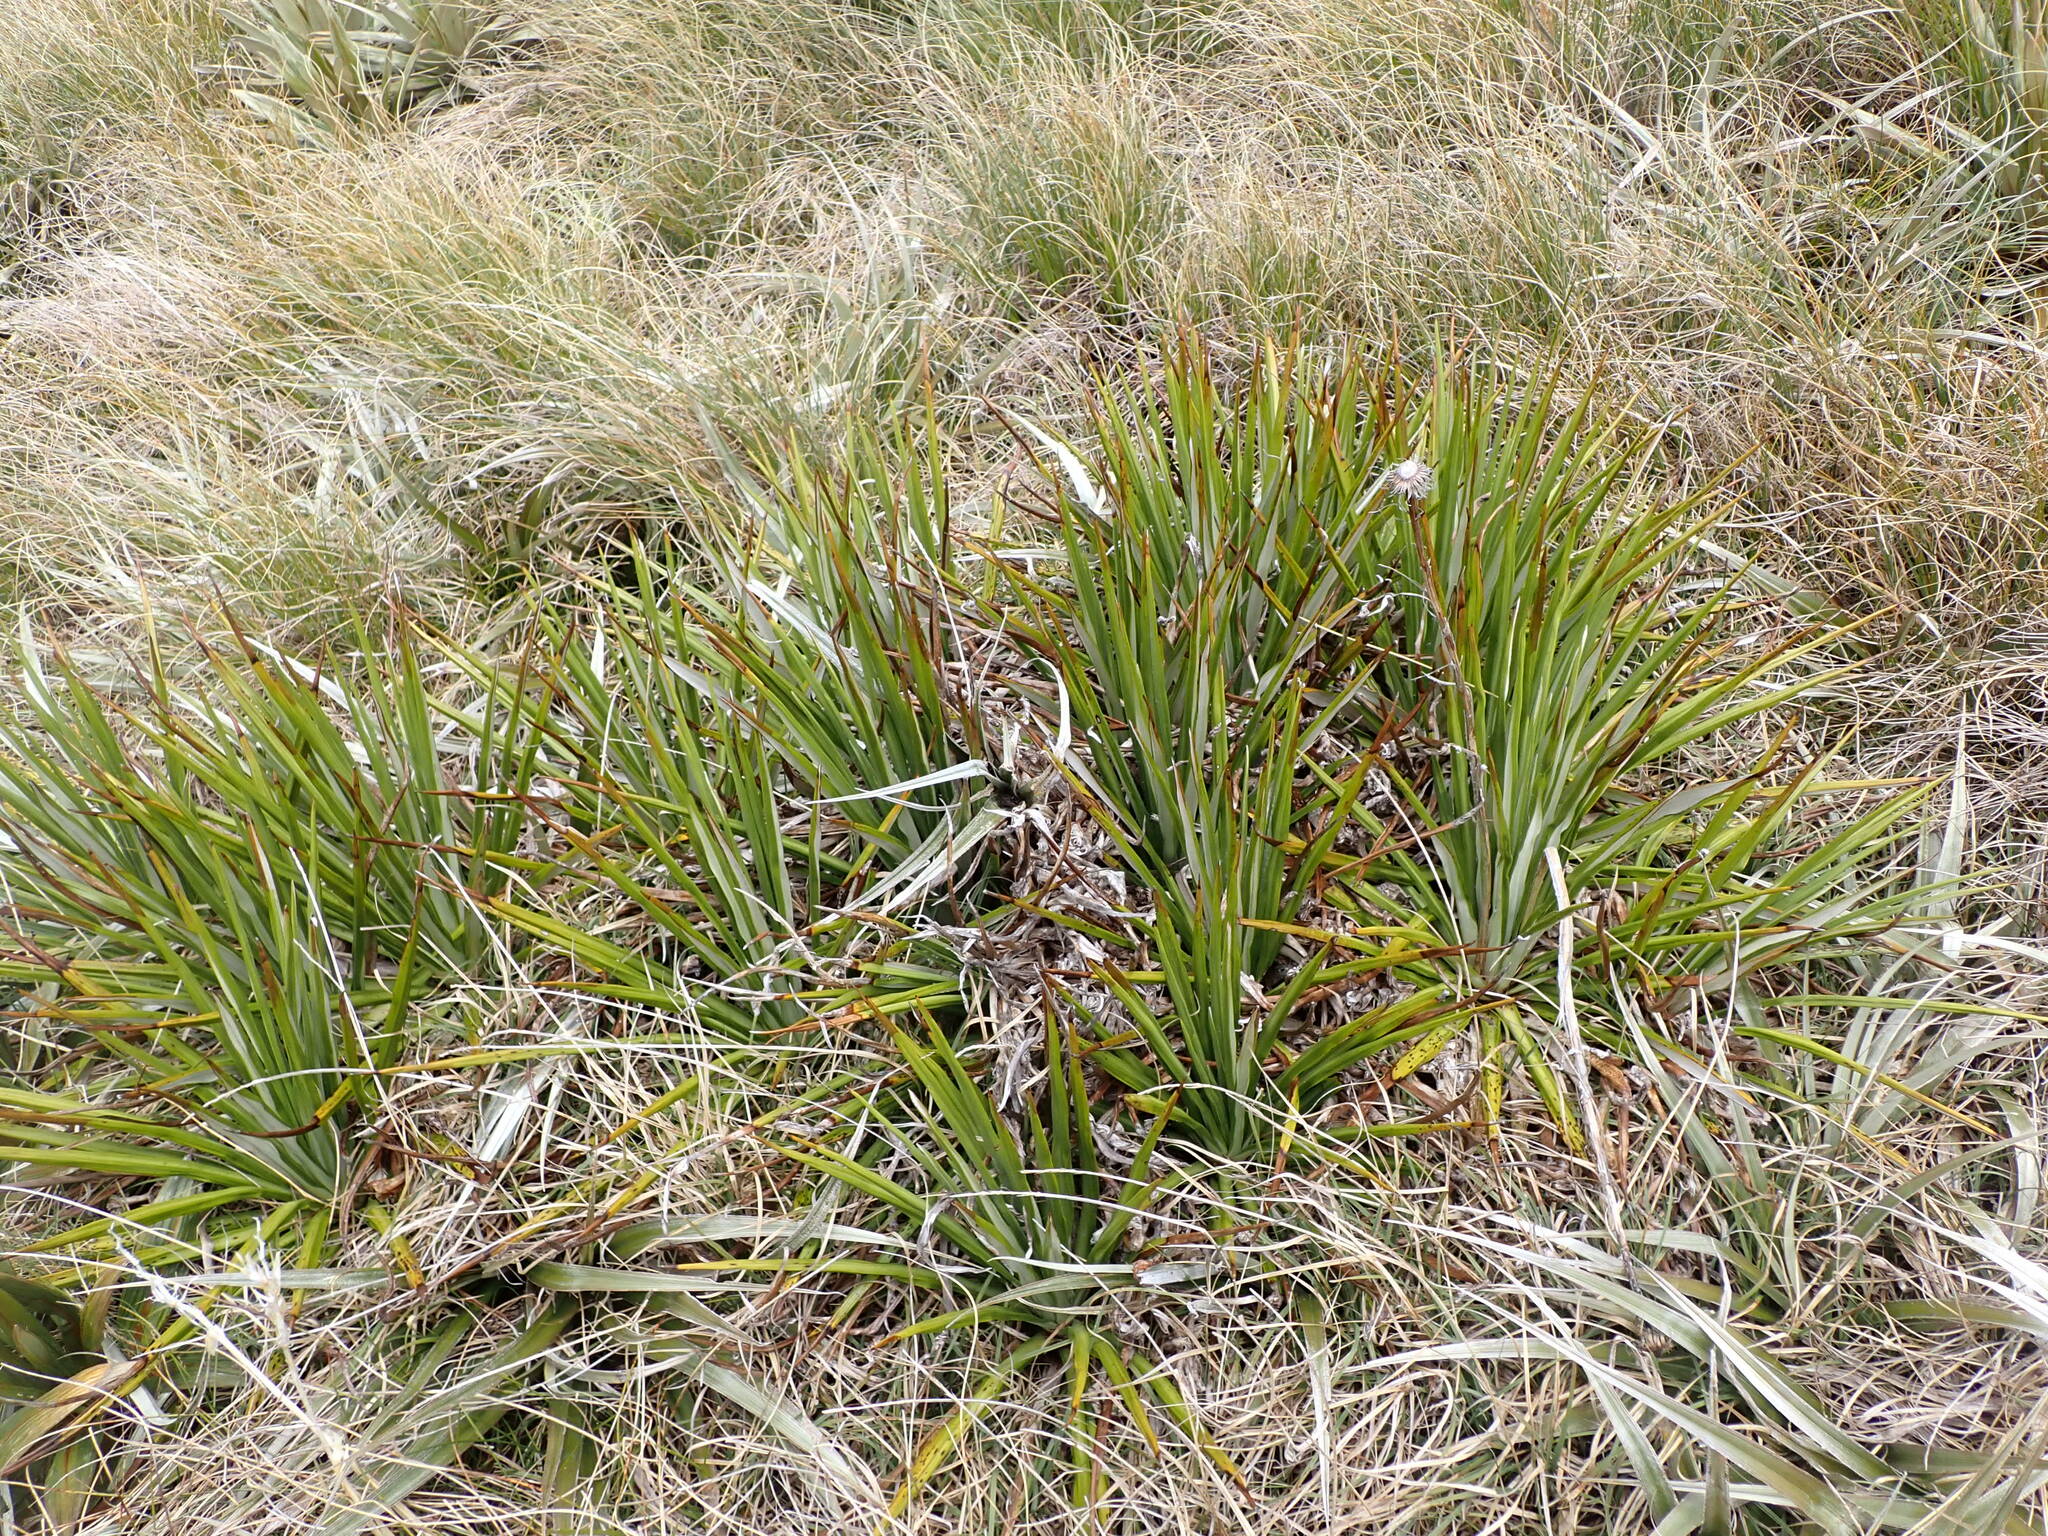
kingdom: Plantae
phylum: Tracheophyta
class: Magnoliopsida
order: Asterales
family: Asteraceae
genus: Celmisia
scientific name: Celmisia petriei
